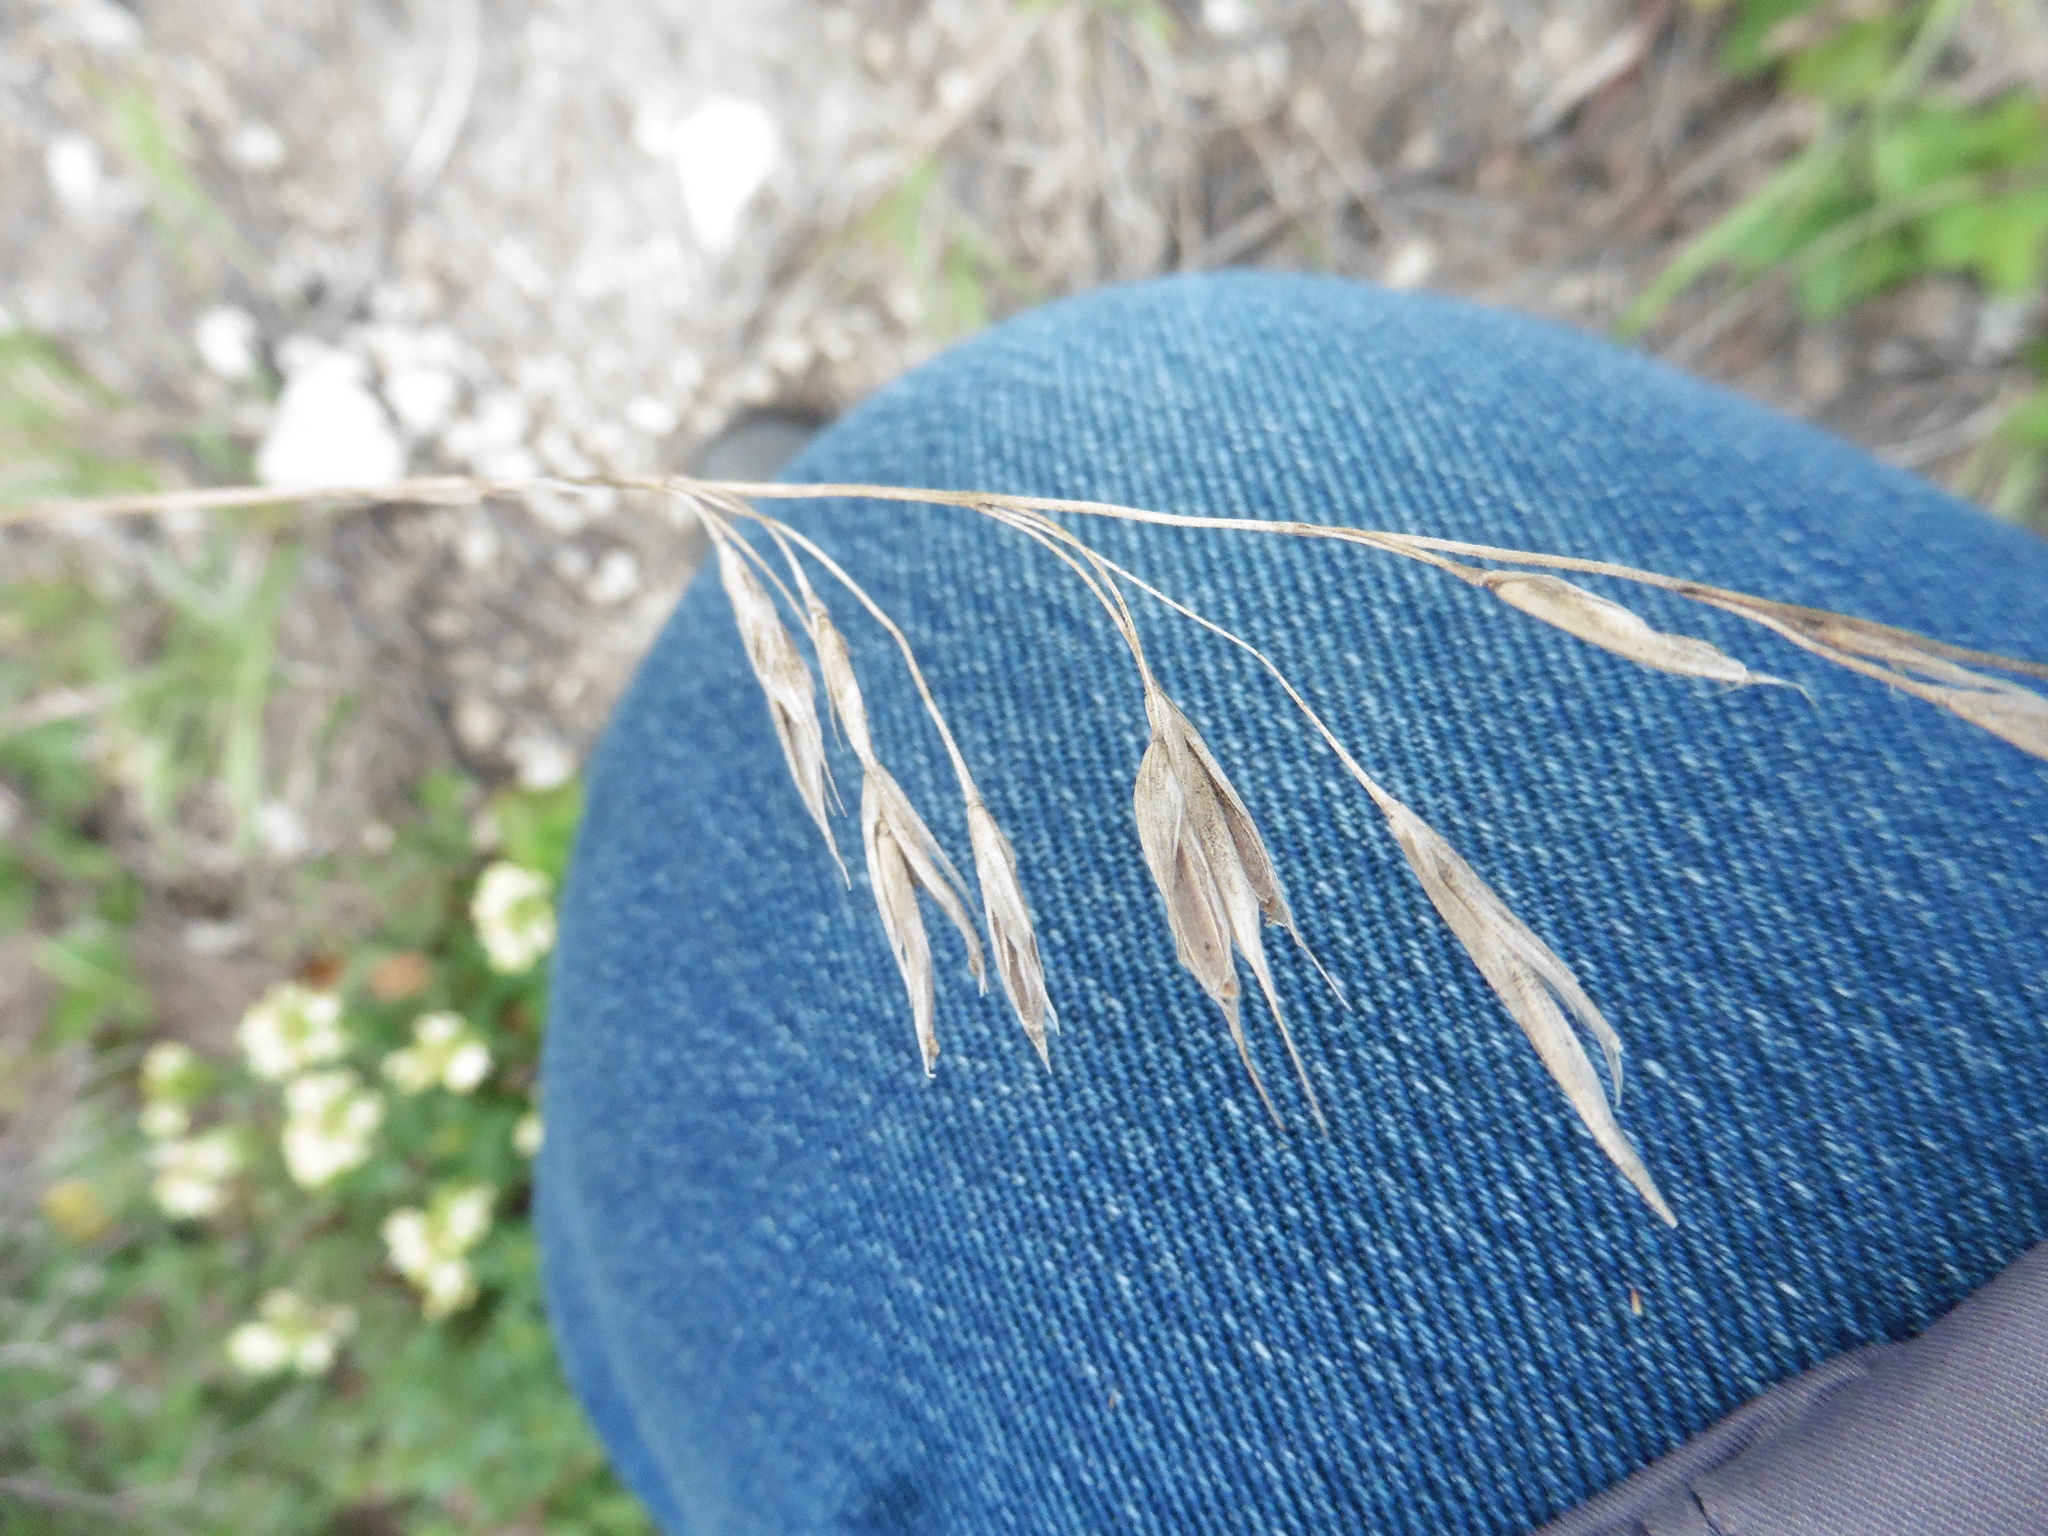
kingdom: Plantae
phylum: Tracheophyta
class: Liliopsida
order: Poales
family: Poaceae
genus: Bromus
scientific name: Bromus riparius
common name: Meadow brome
